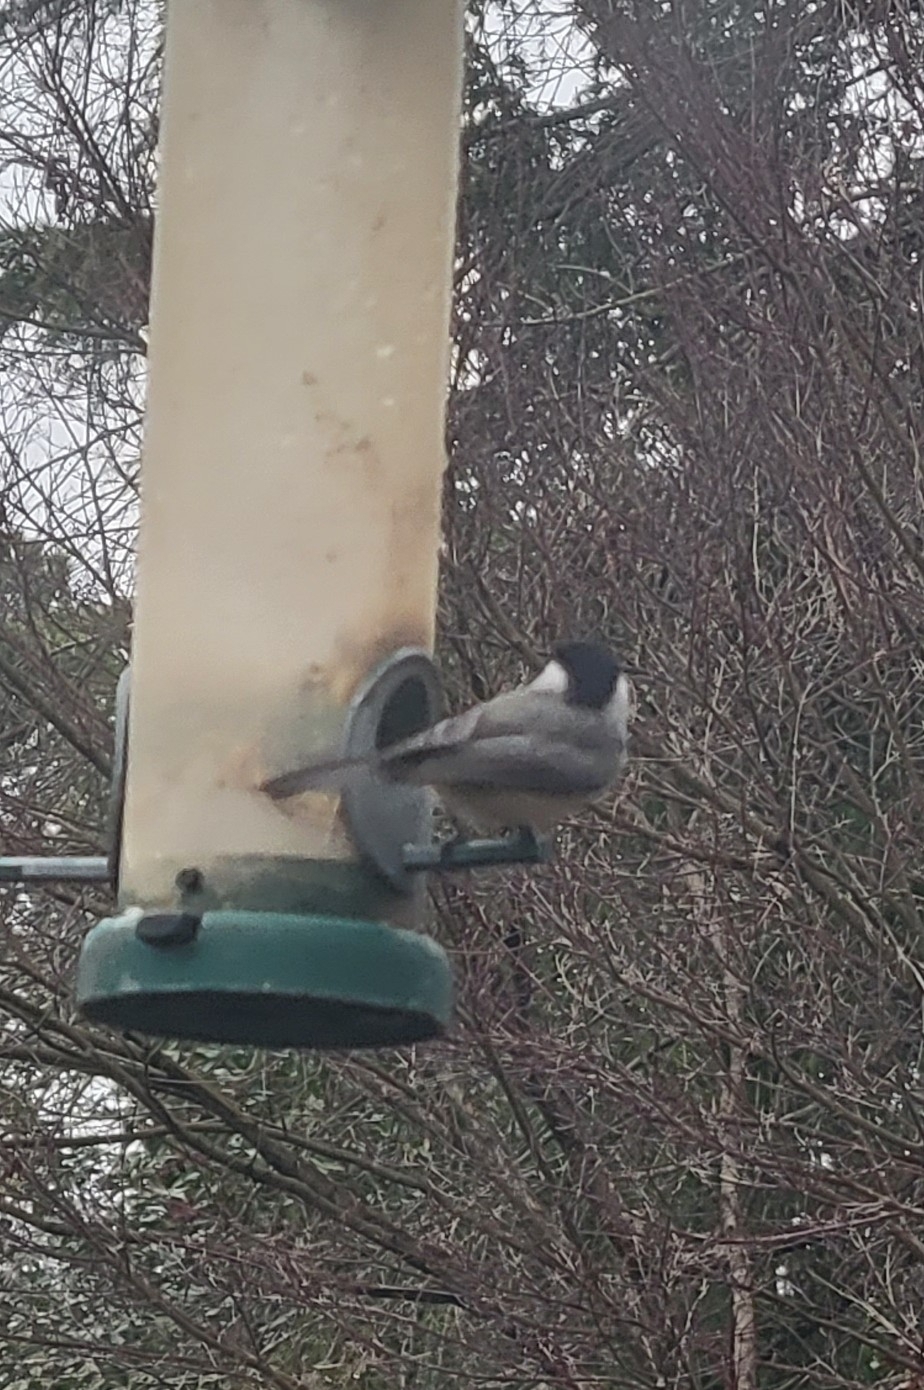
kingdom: Animalia
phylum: Chordata
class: Aves
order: Passeriformes
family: Paridae
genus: Poecile
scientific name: Poecile carolinensis
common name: Carolina chickadee
